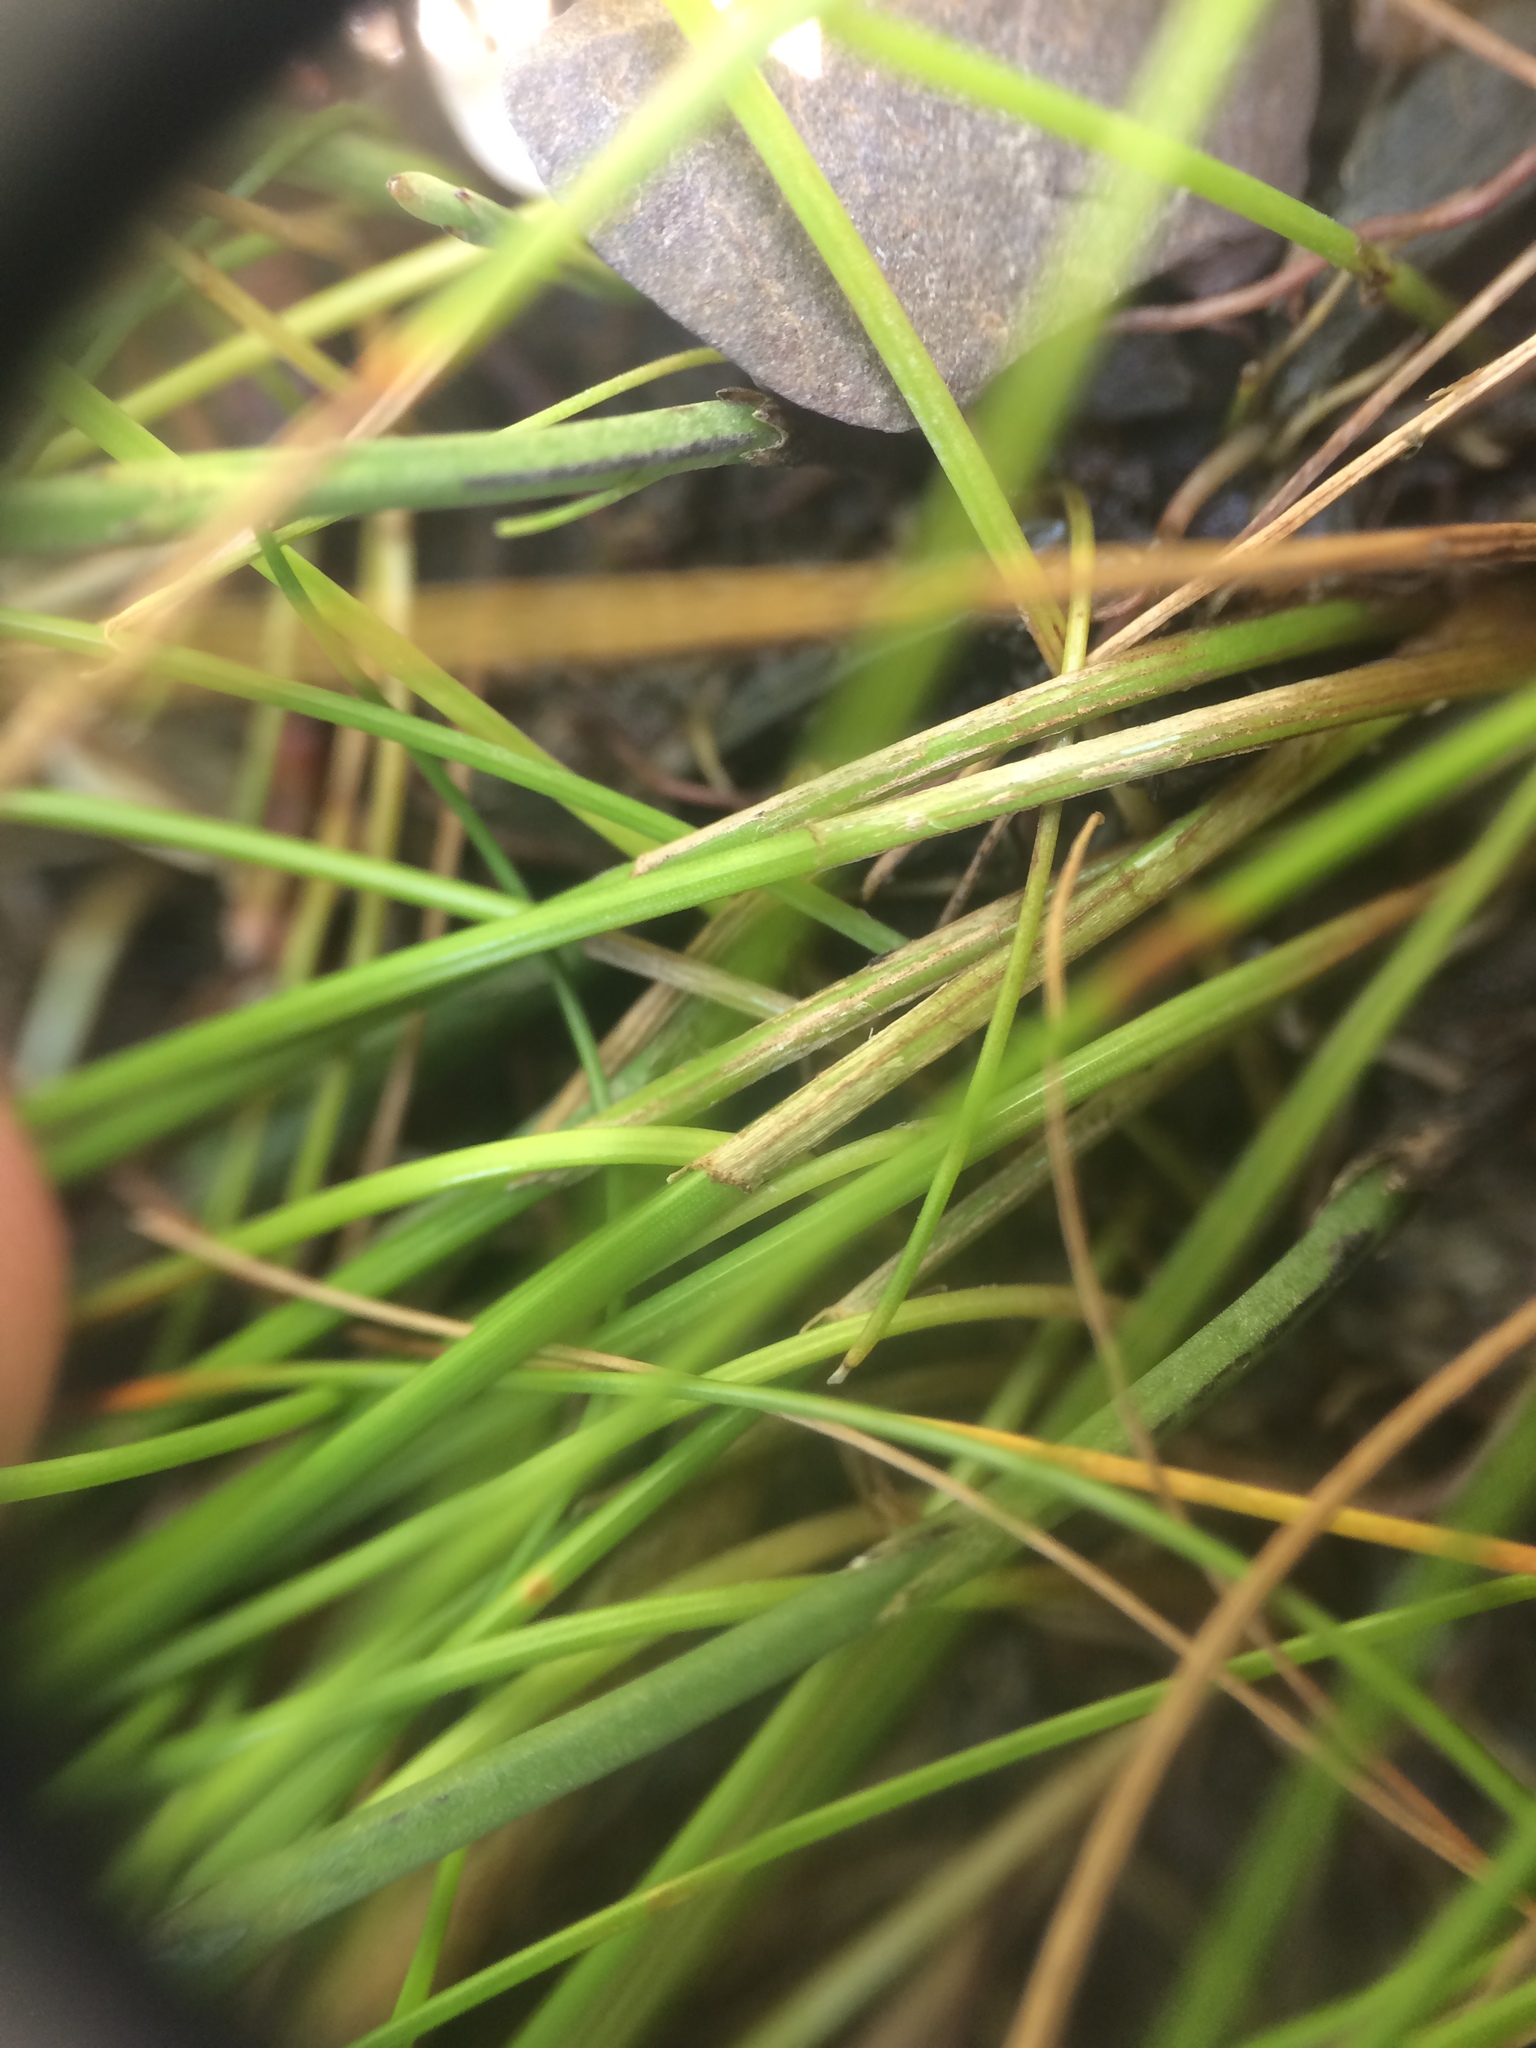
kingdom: Plantae
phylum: Tracheophyta
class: Liliopsida
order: Poales
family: Cyperaceae
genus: Eleocharis
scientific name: Eleocharis elliptica
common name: Capitate spikerush
